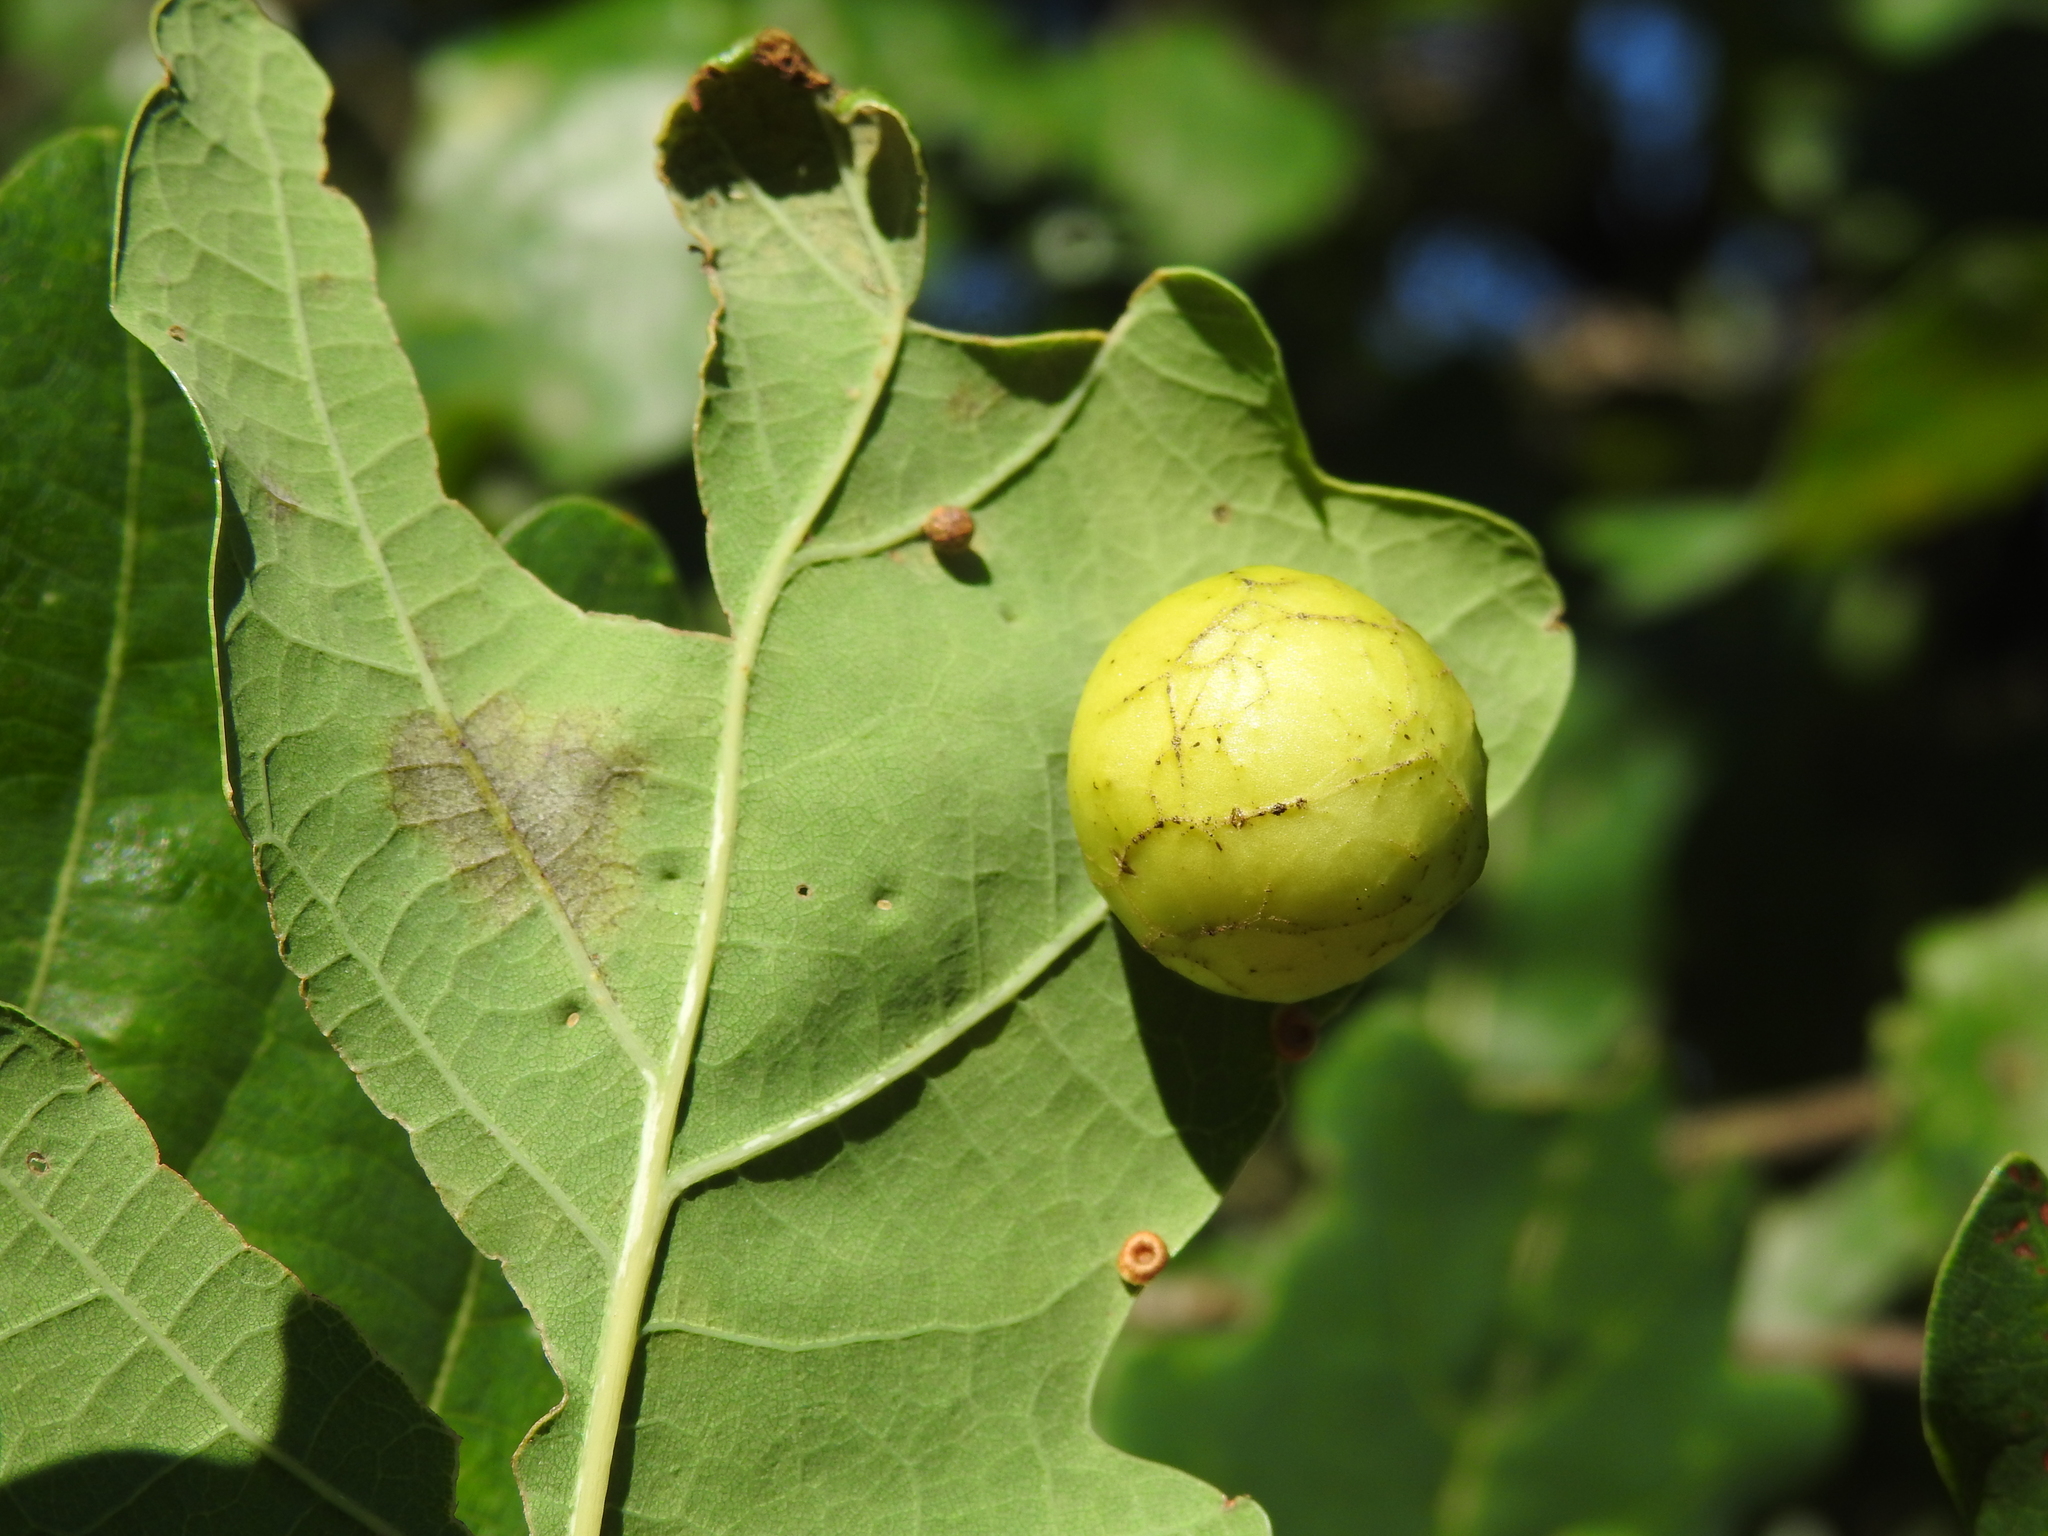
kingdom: Animalia
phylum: Arthropoda
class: Insecta
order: Hymenoptera
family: Cynipidae
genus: Cynips
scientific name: Cynips quercusfolii
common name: Cherry gall
